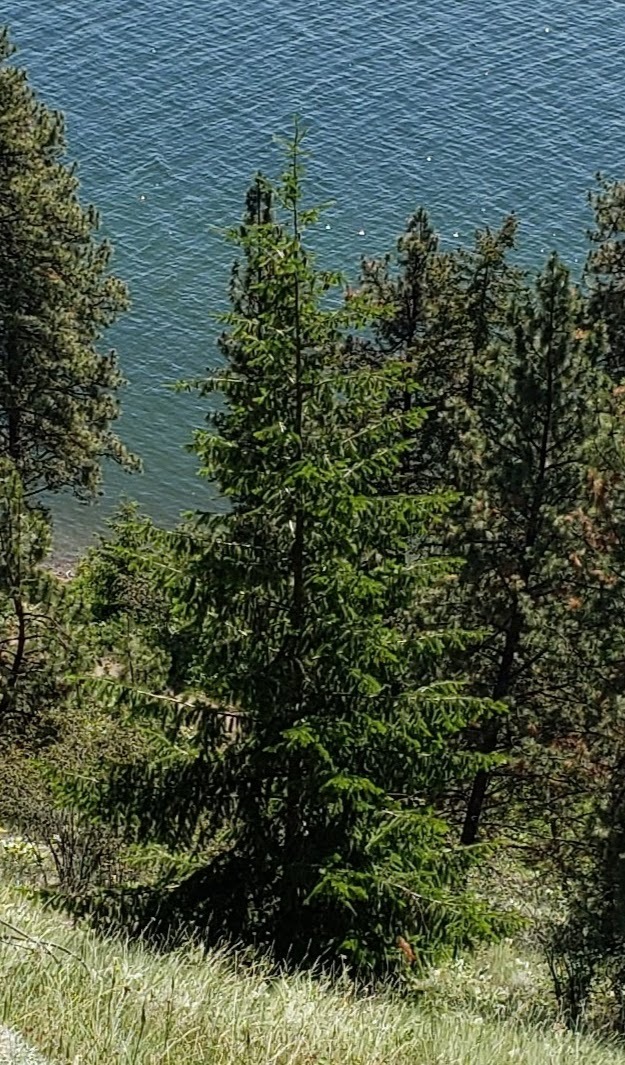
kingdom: Plantae
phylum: Tracheophyta
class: Pinopsida
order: Pinales
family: Pinaceae
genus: Pseudotsuga
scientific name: Pseudotsuga menziesii
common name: Douglas fir
